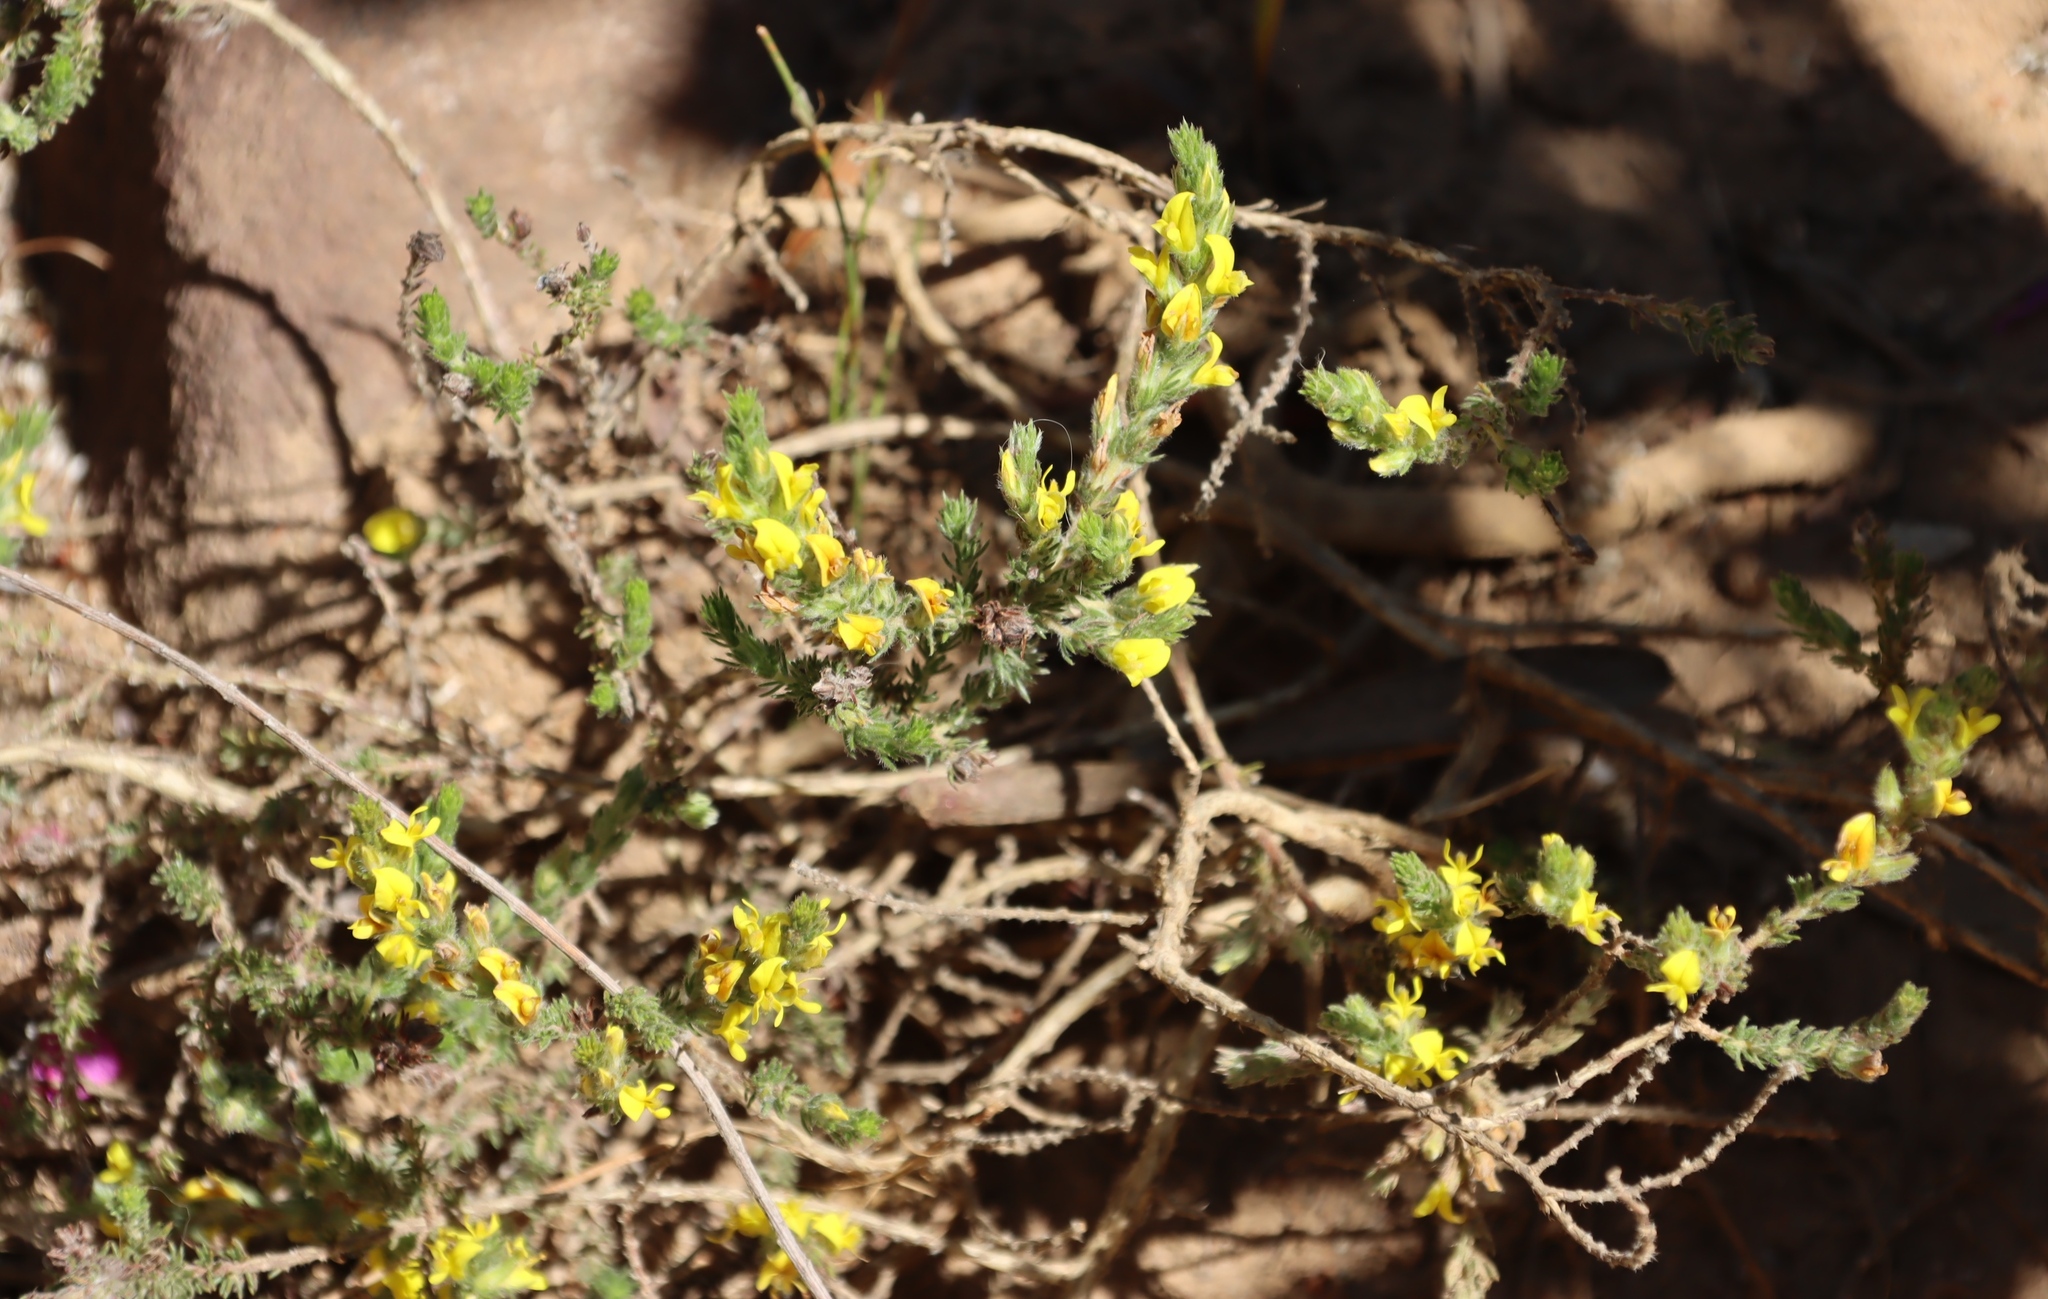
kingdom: Plantae
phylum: Tracheophyta
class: Magnoliopsida
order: Fabales
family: Fabaceae
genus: Aspalathus
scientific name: Aspalathus ericifolia
